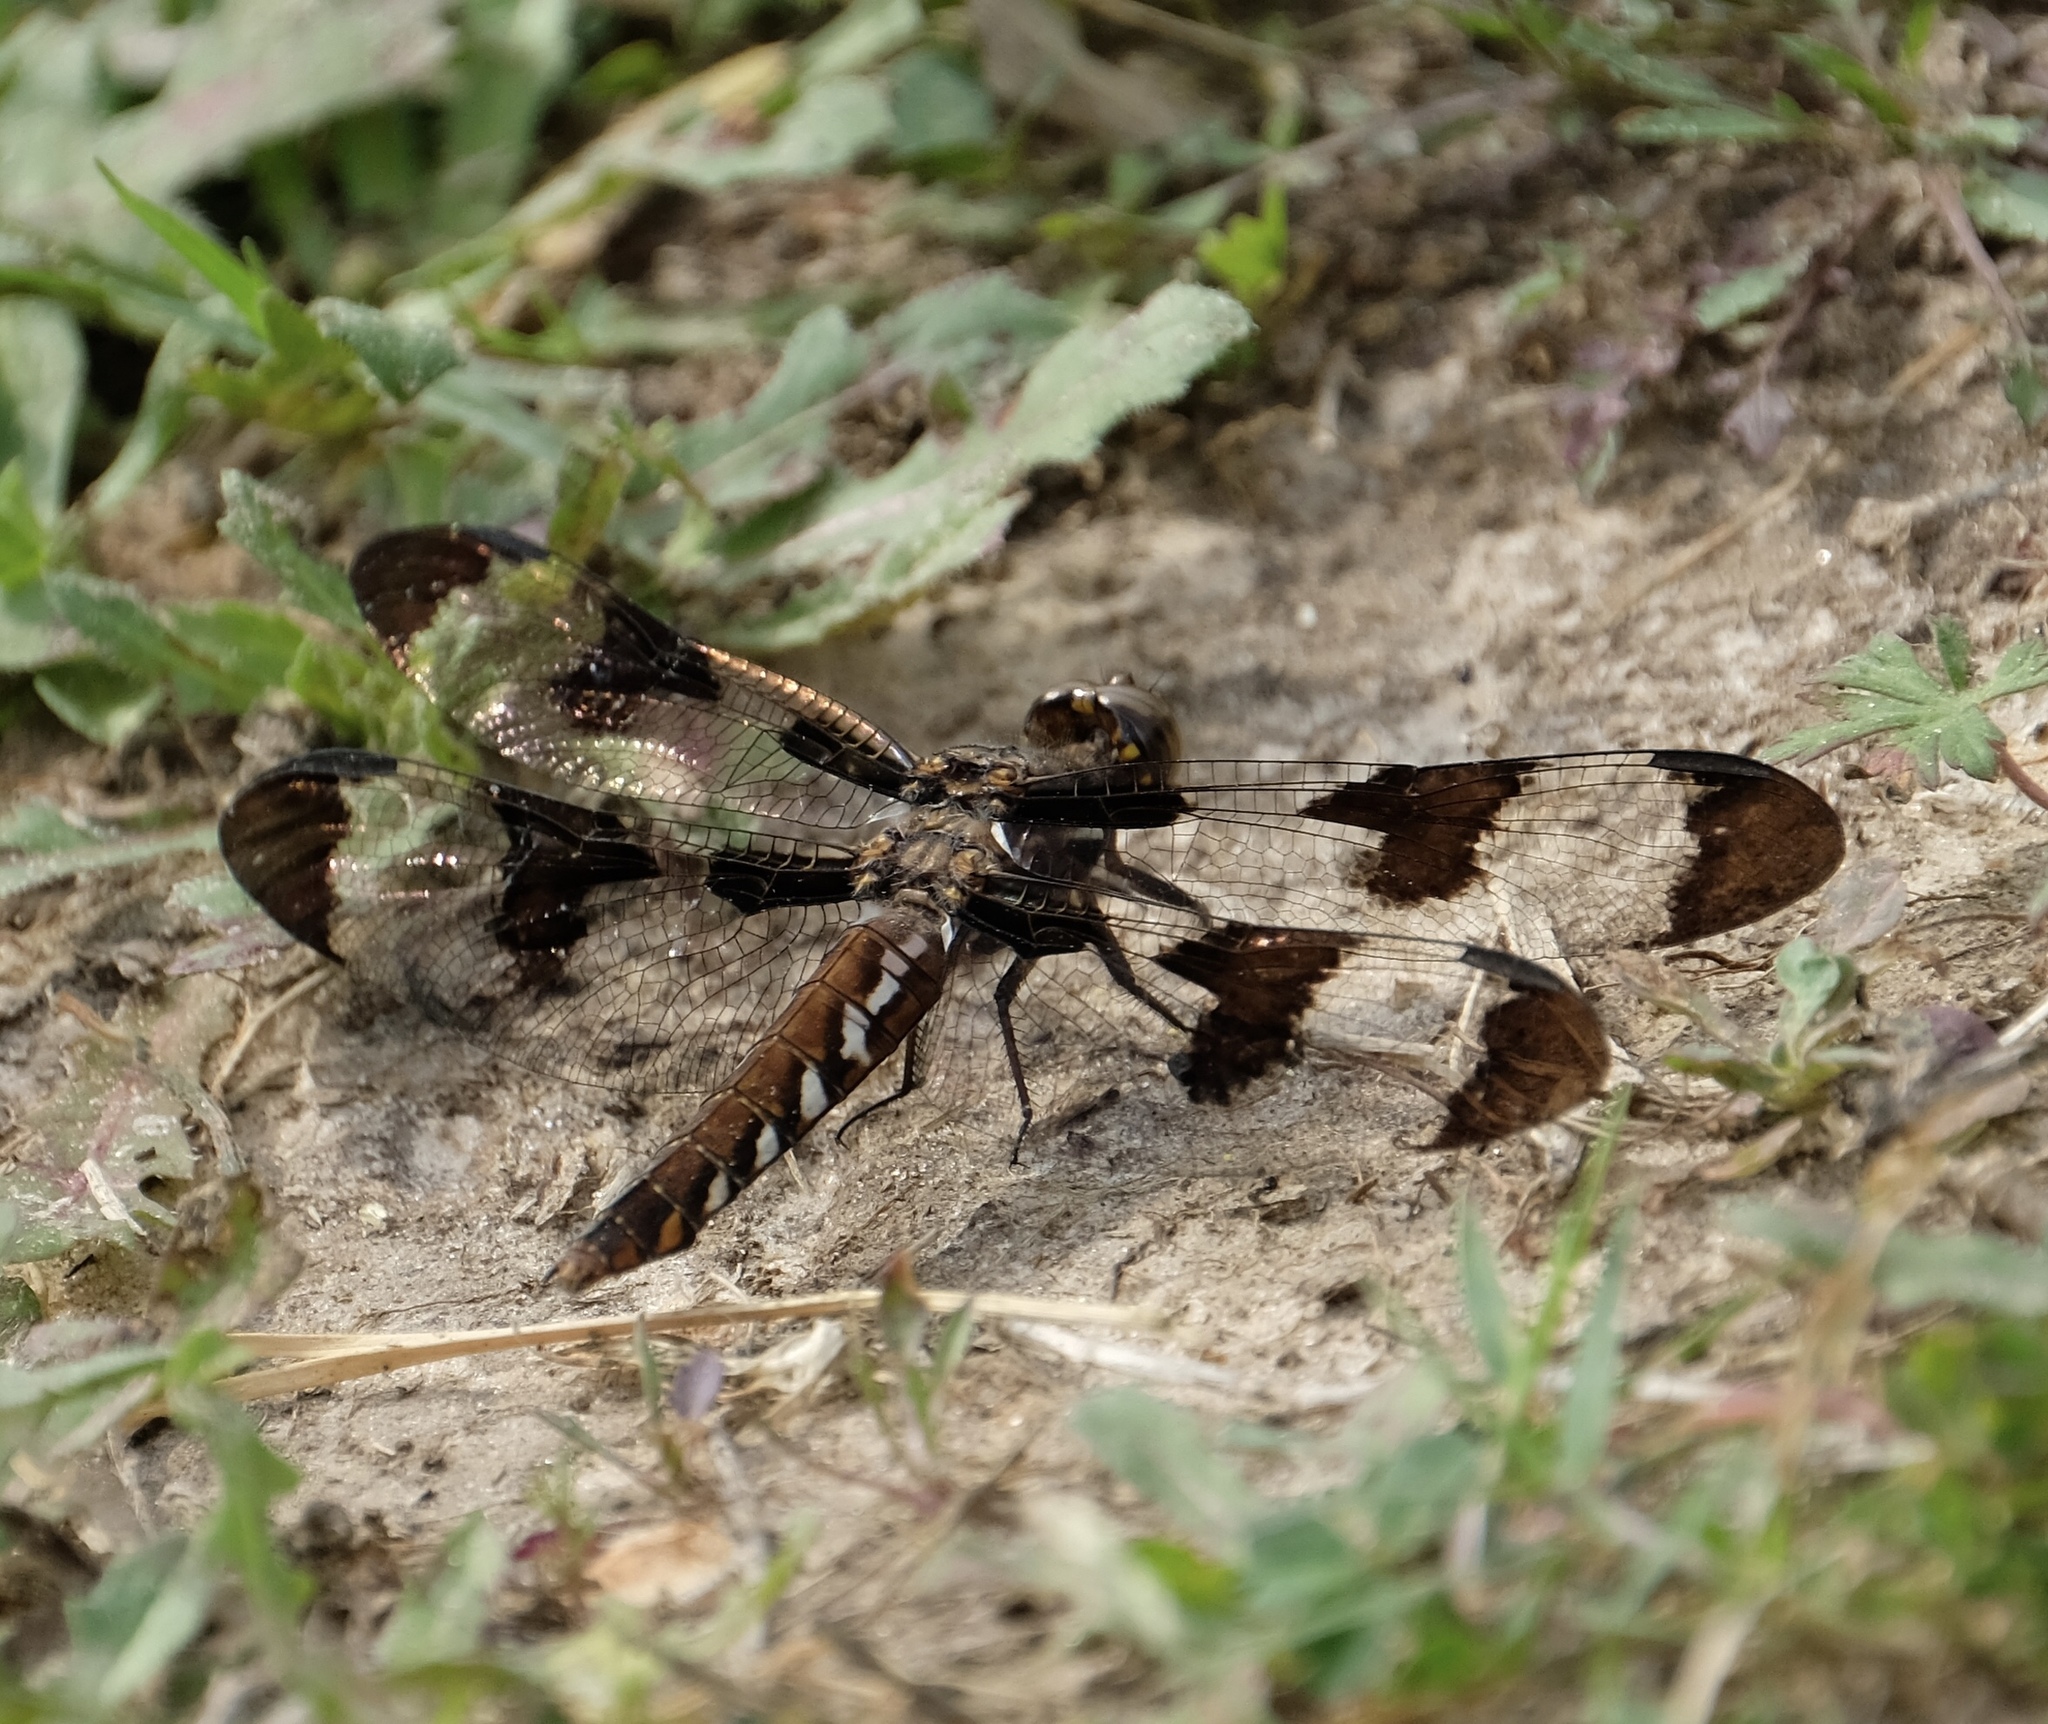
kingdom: Animalia
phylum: Arthropoda
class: Insecta
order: Odonata
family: Libellulidae
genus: Plathemis
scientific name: Plathemis lydia
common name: Common whitetail
